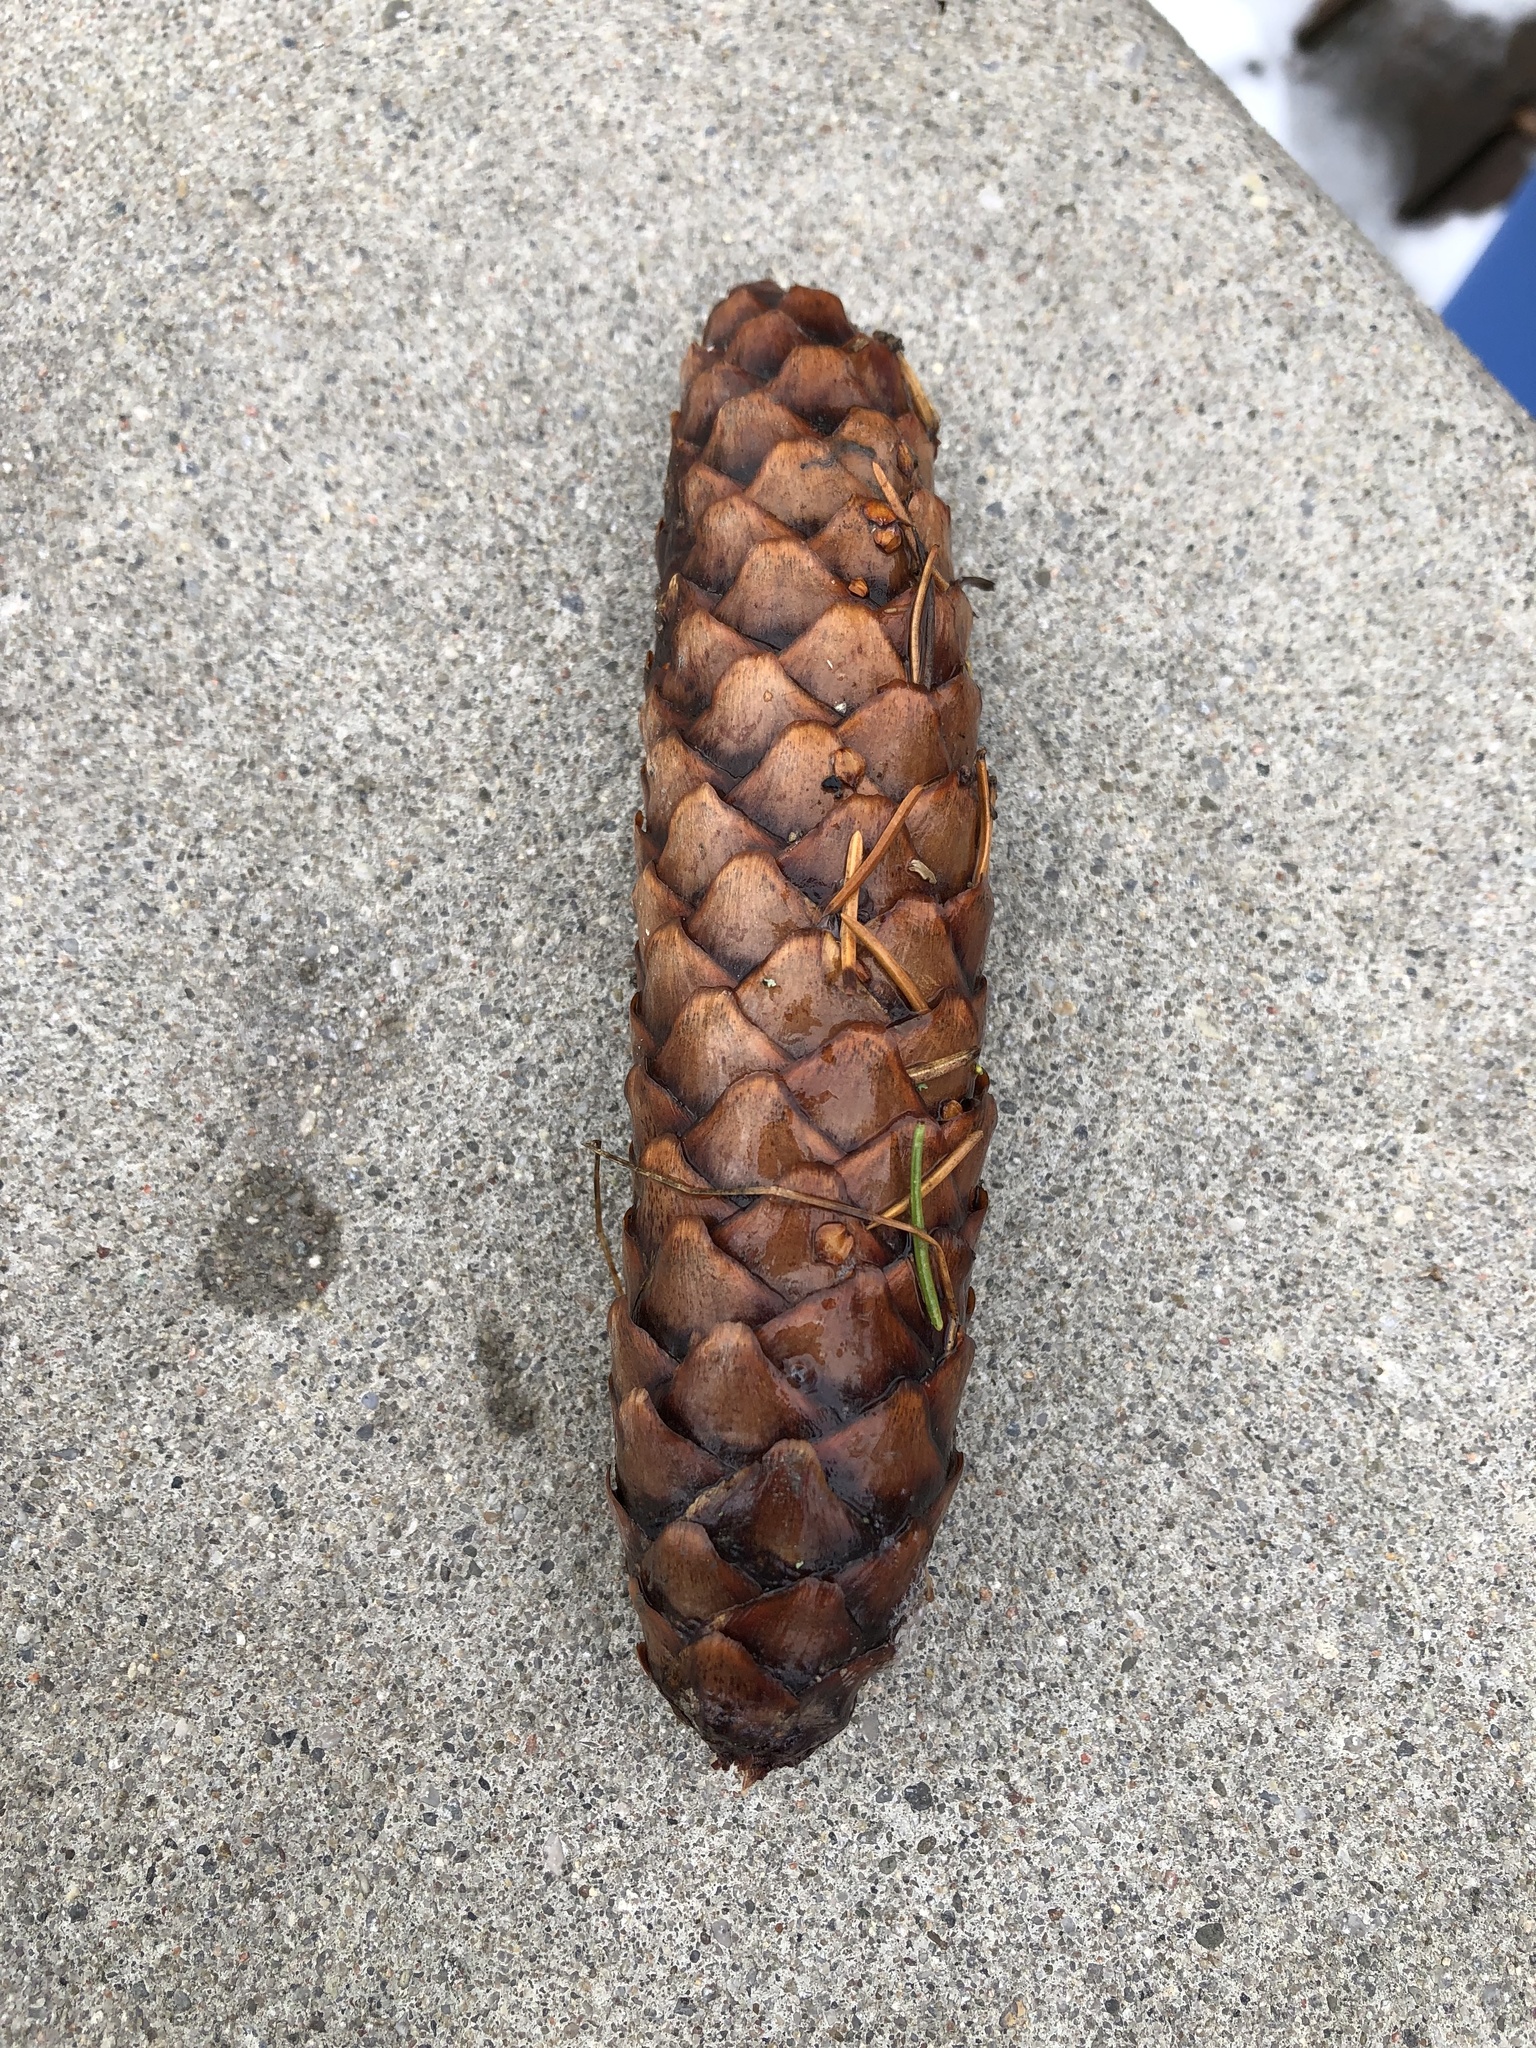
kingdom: Plantae
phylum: Tracheophyta
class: Pinopsida
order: Pinales
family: Pinaceae
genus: Picea
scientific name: Picea abies
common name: Norway spruce
